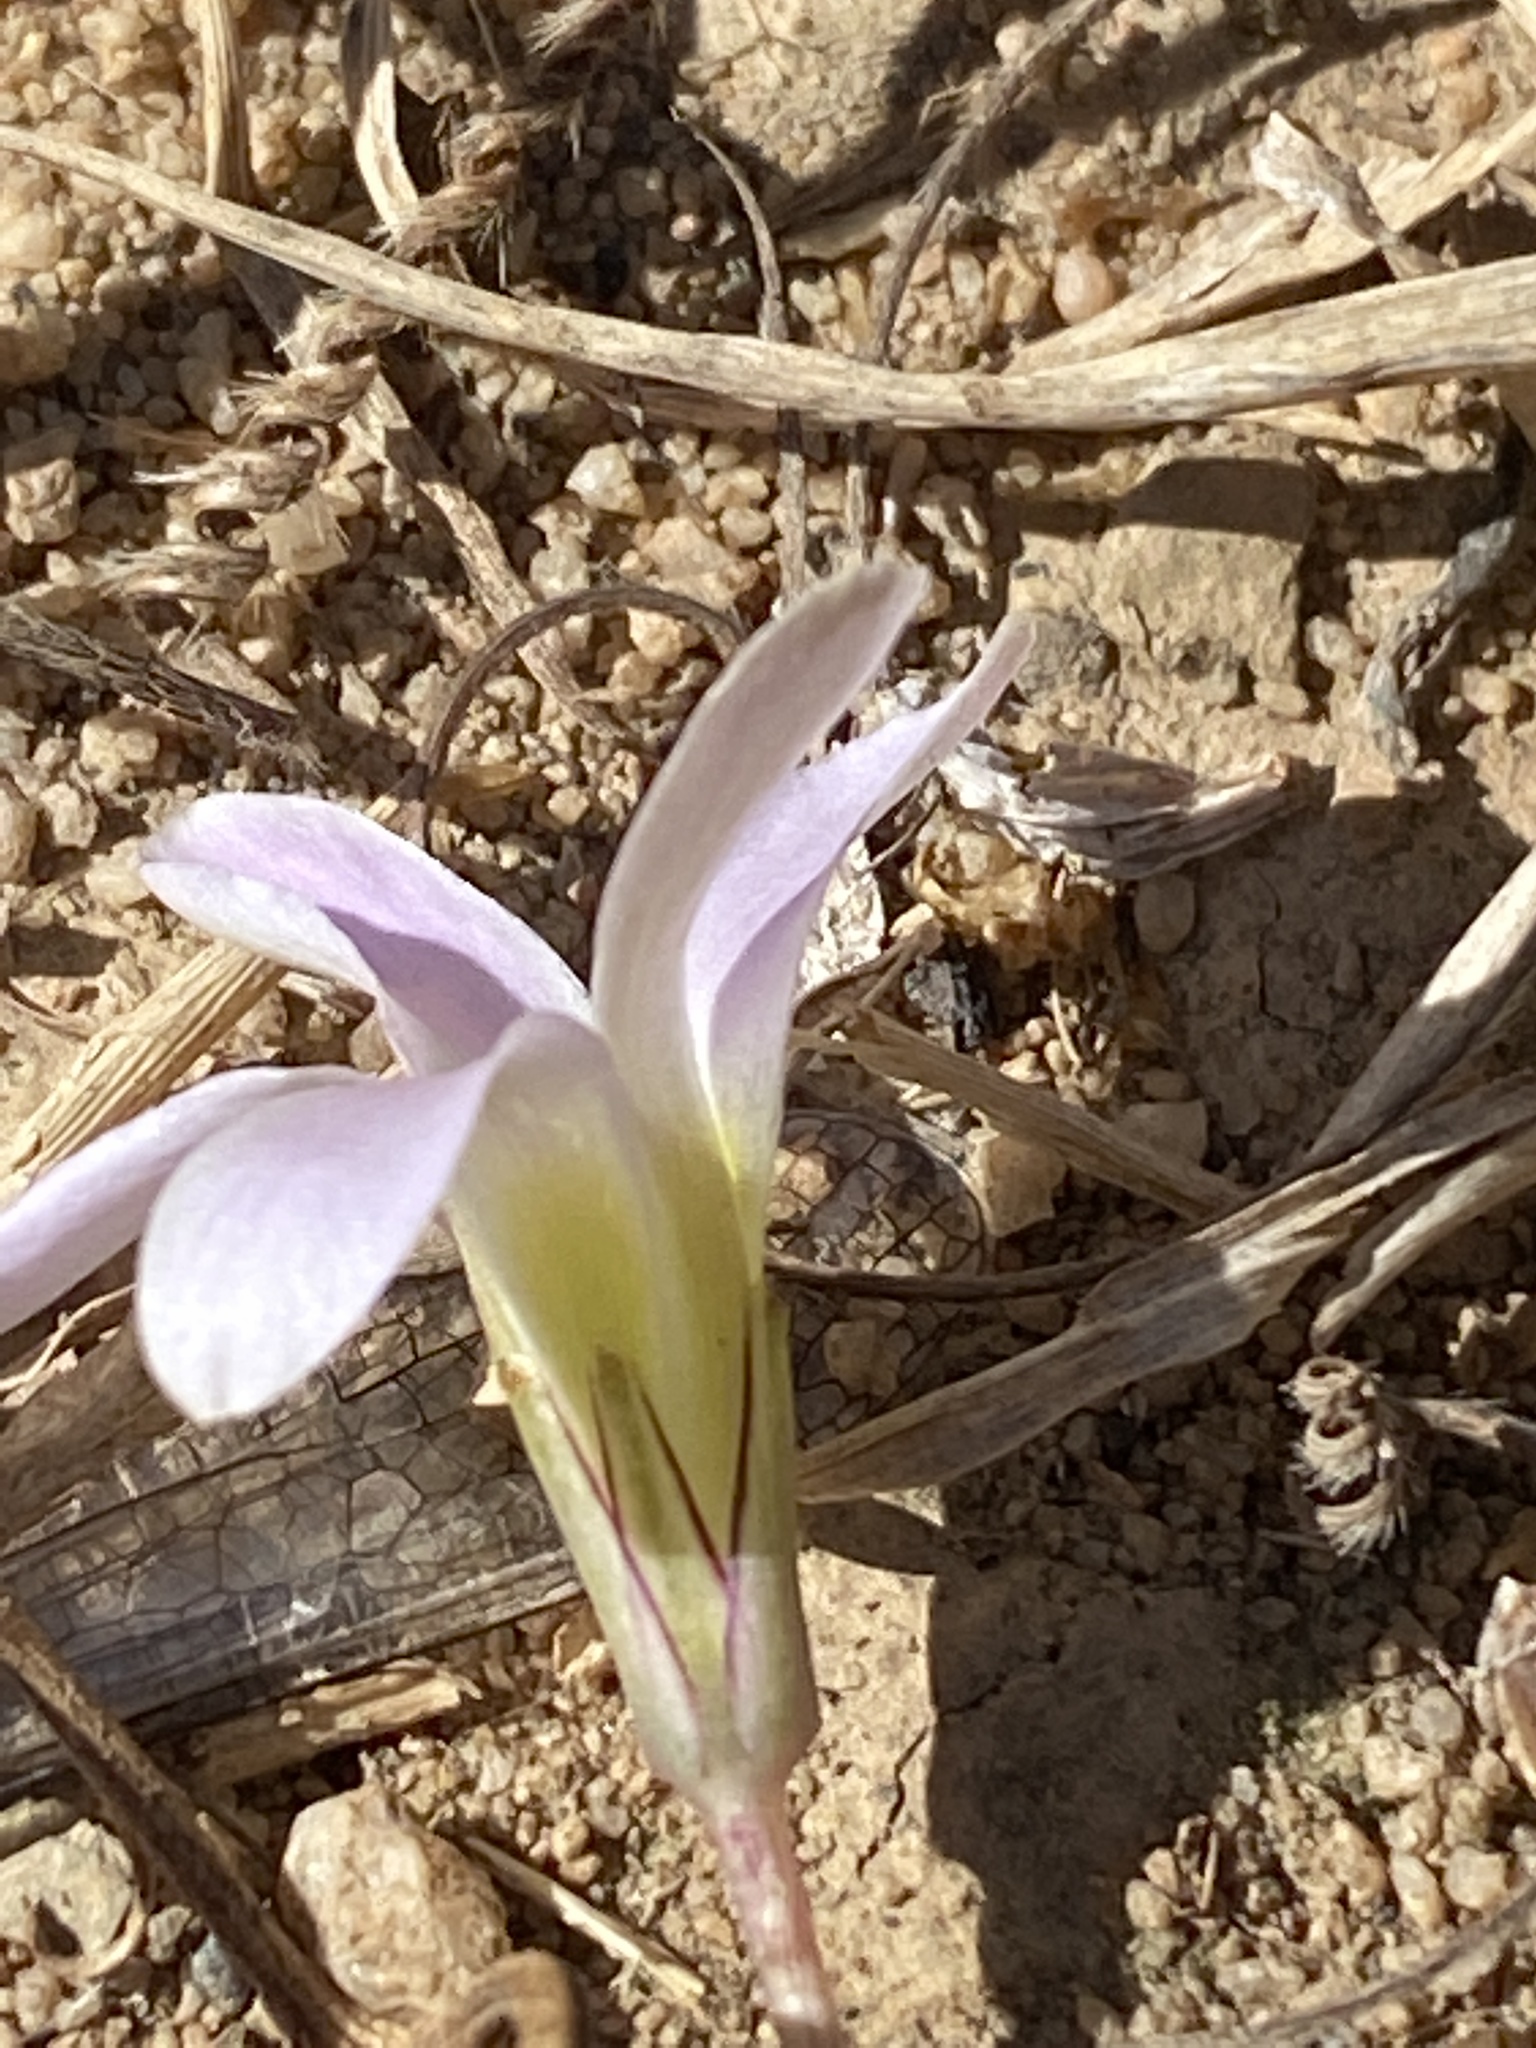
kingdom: Plantae
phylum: Tracheophyta
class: Magnoliopsida
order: Oxalidales
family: Oxalidaceae
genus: Oxalis
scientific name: Oxalis pocockiae
